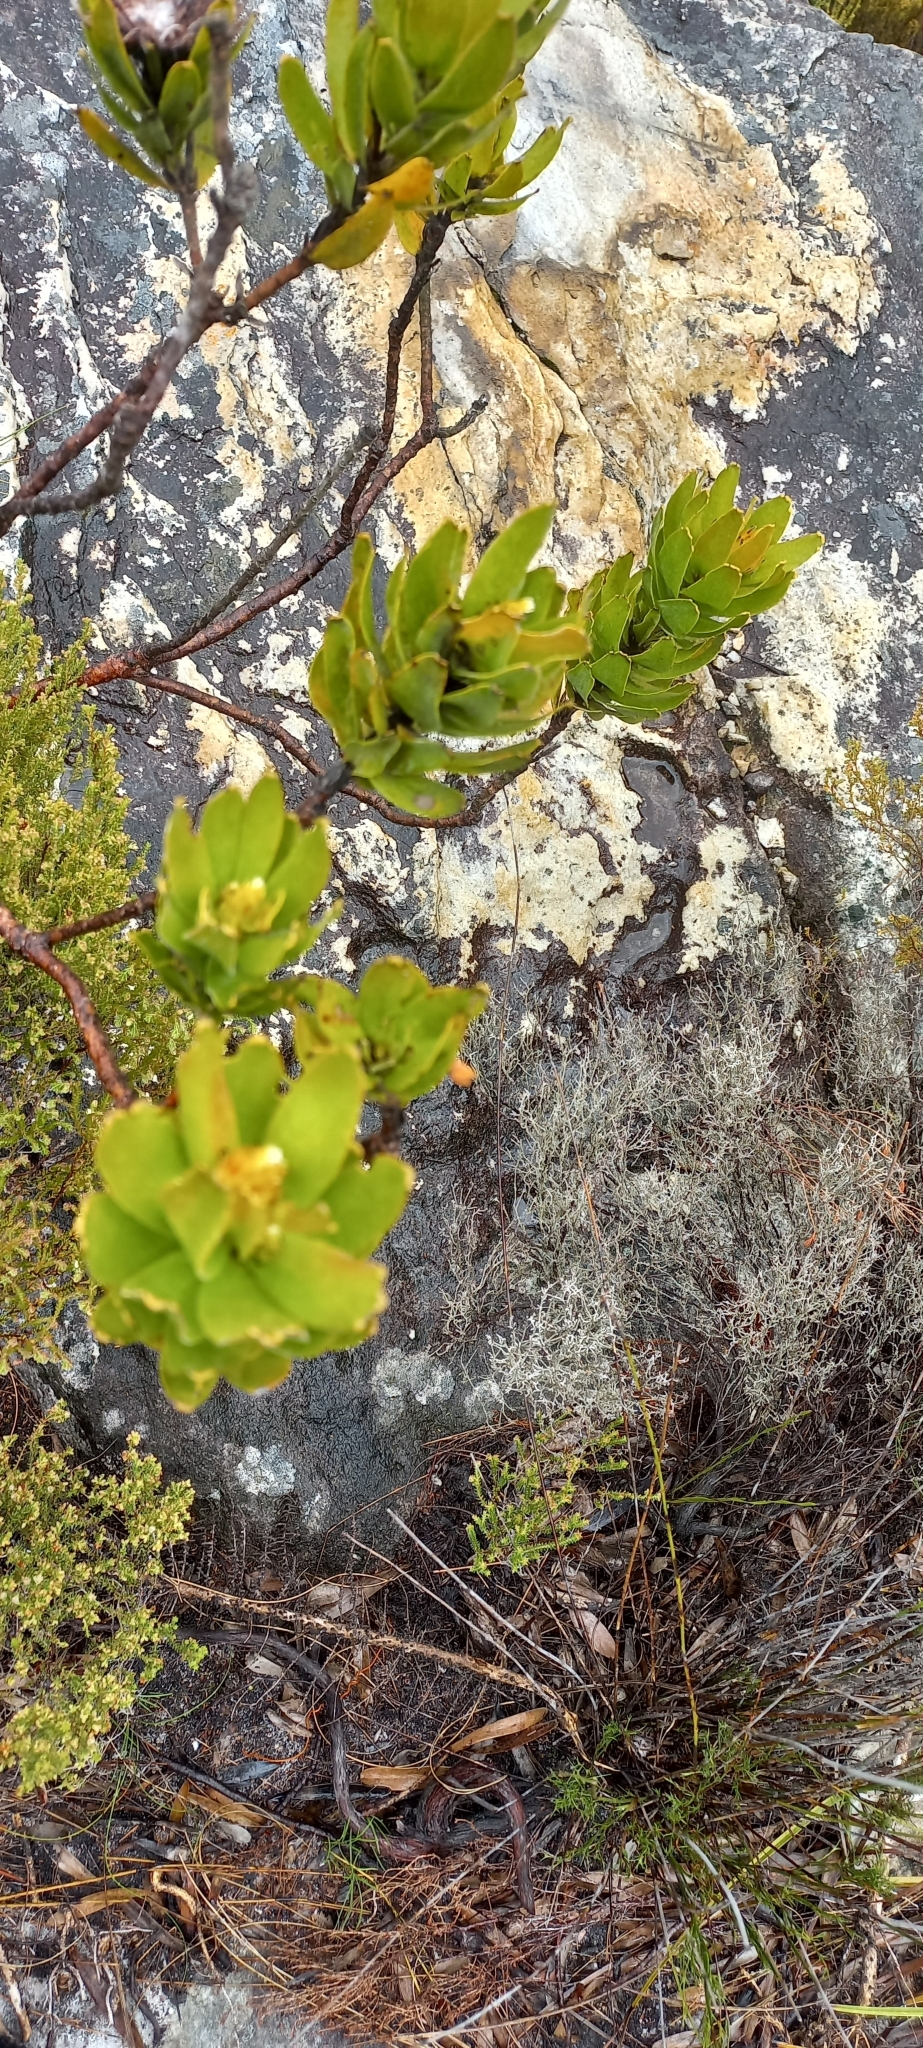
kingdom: Plantae
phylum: Tracheophyta
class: Magnoliopsida
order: Proteales
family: Proteaceae
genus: Leucospermum
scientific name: Leucospermum oleifolium
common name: Matches
